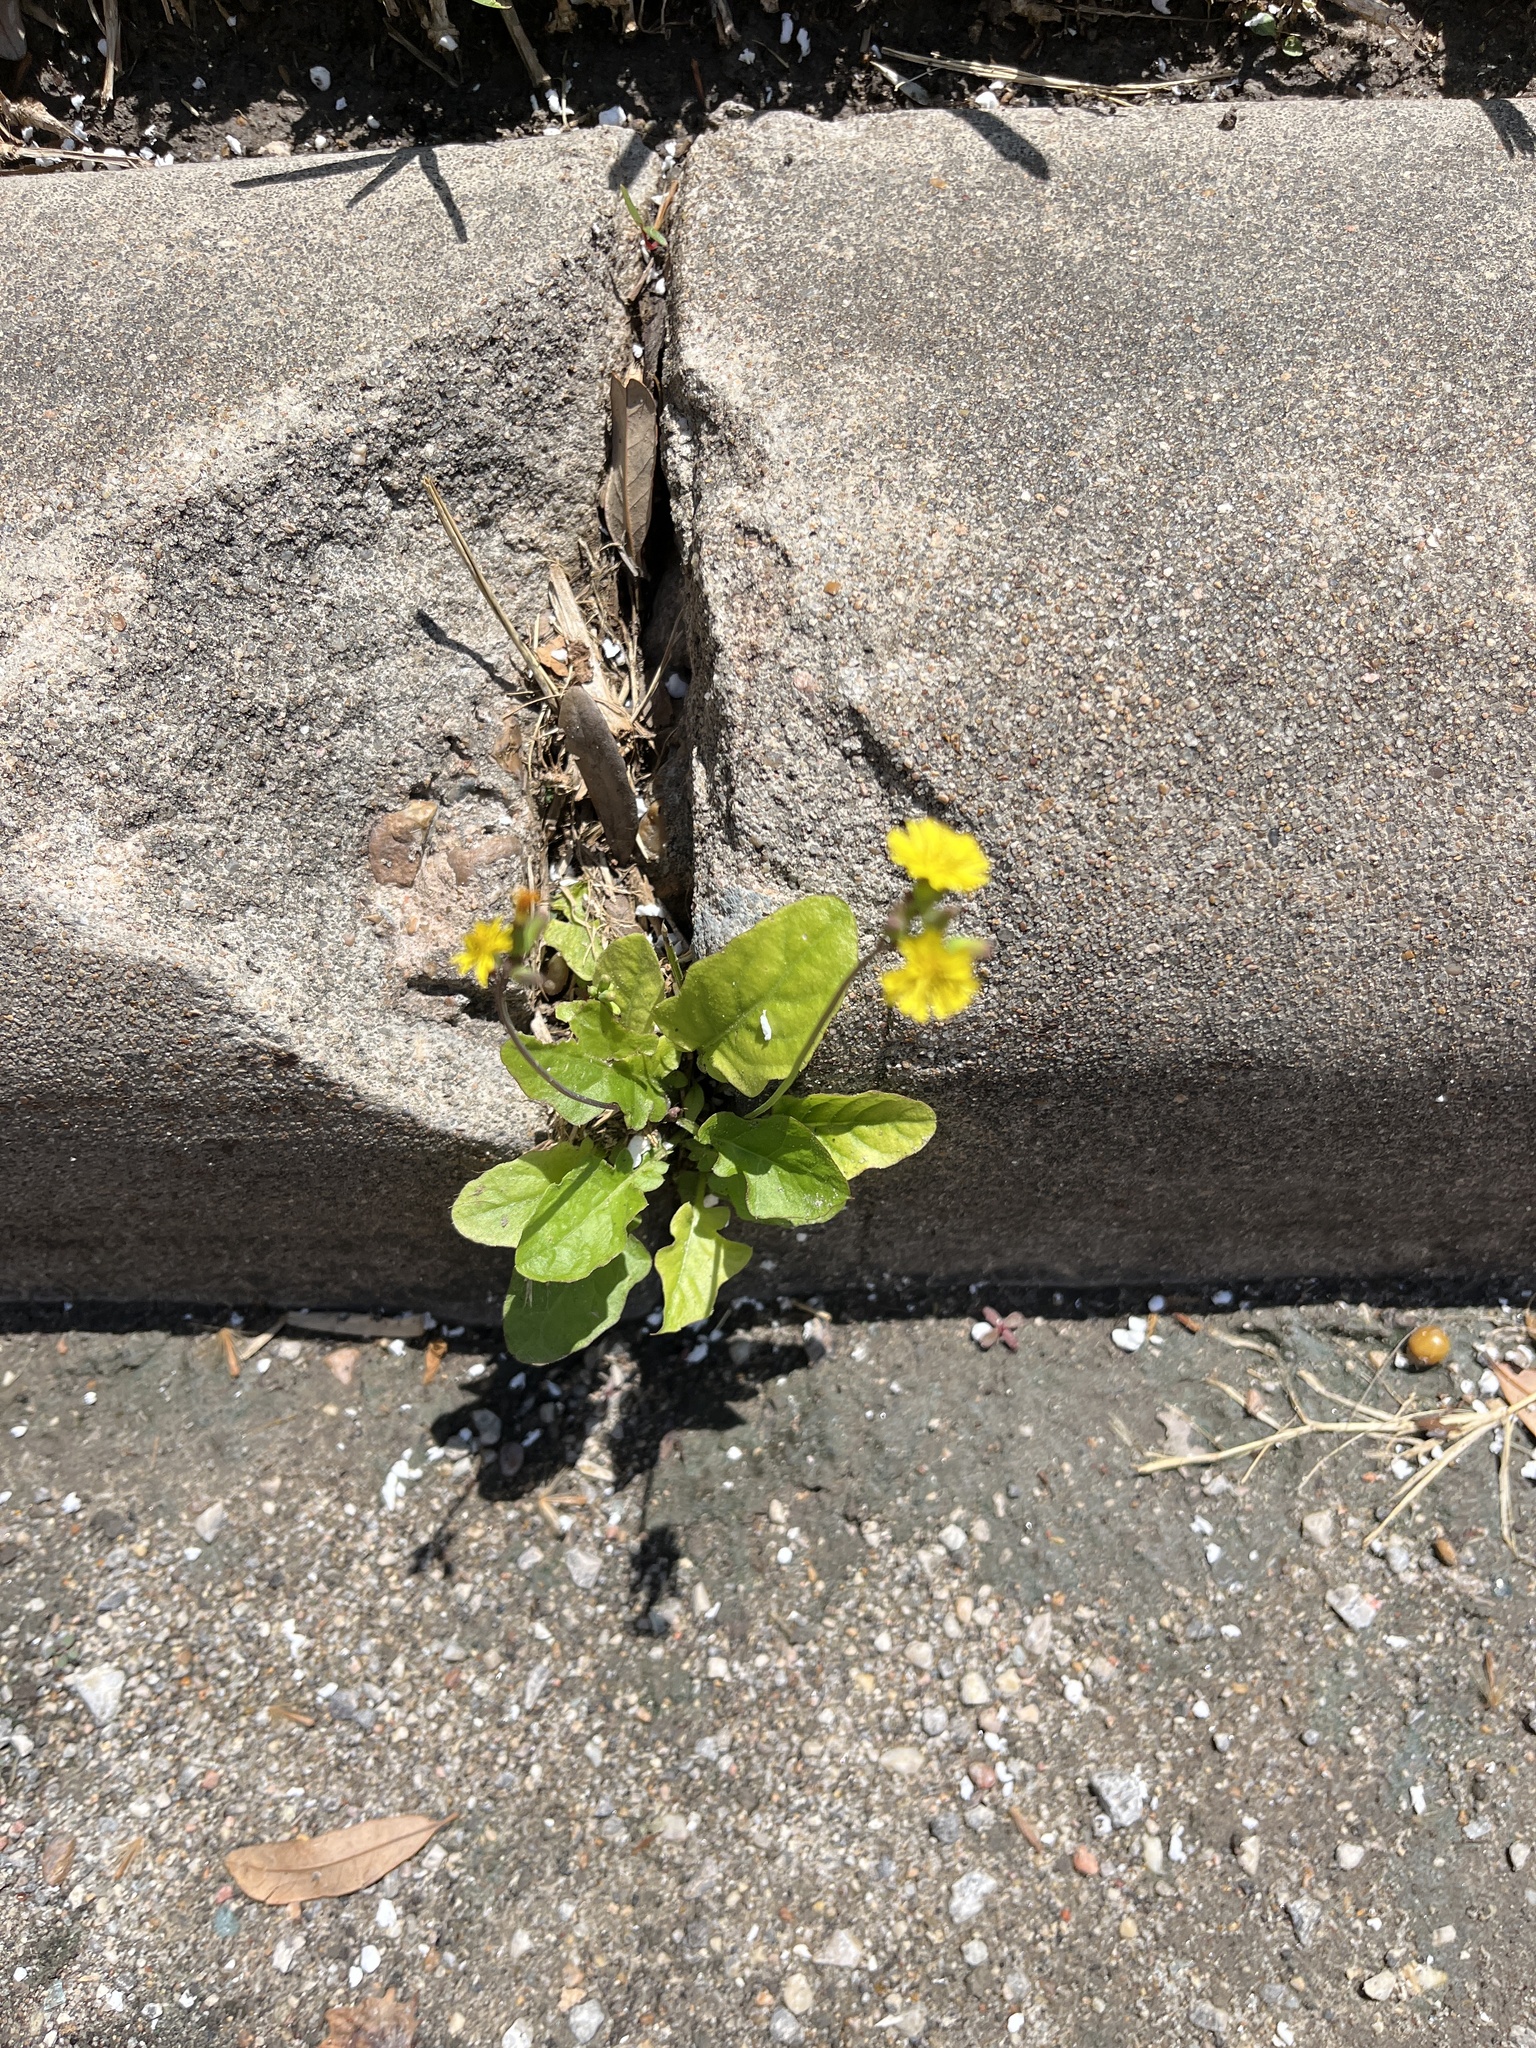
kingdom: Plantae
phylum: Tracheophyta
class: Magnoliopsida
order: Asterales
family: Asteraceae
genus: Youngia
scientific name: Youngia japonica
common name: Oriental false hawksbeard
